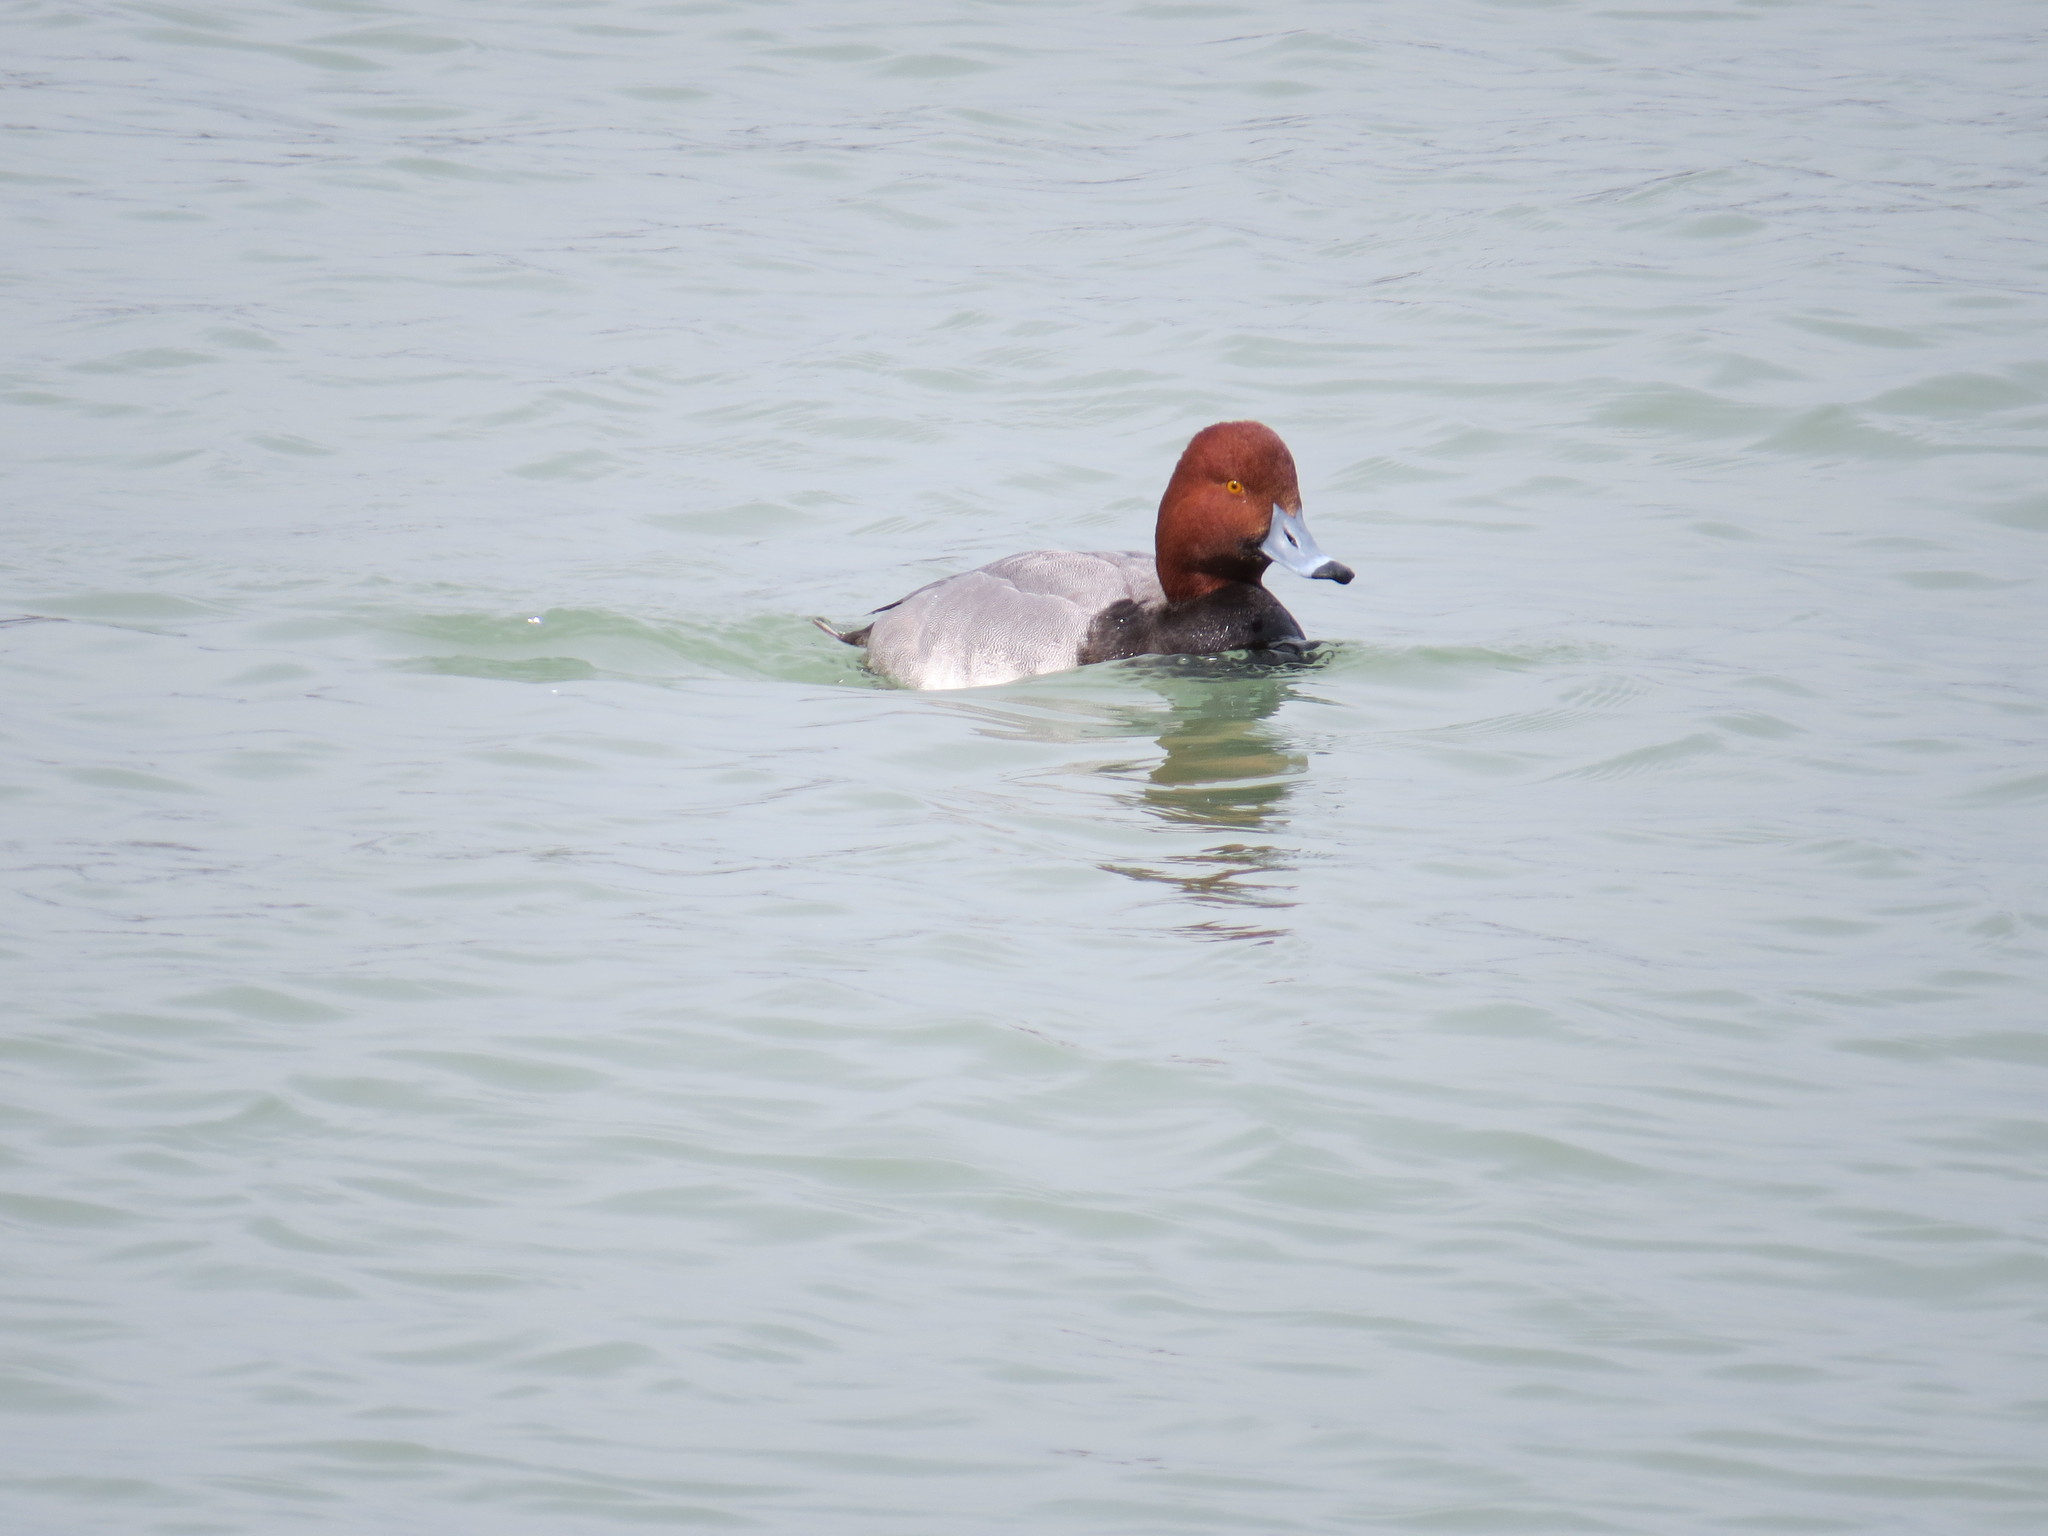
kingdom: Animalia
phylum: Chordata
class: Aves
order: Anseriformes
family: Anatidae
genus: Aythya
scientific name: Aythya americana
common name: Redhead
